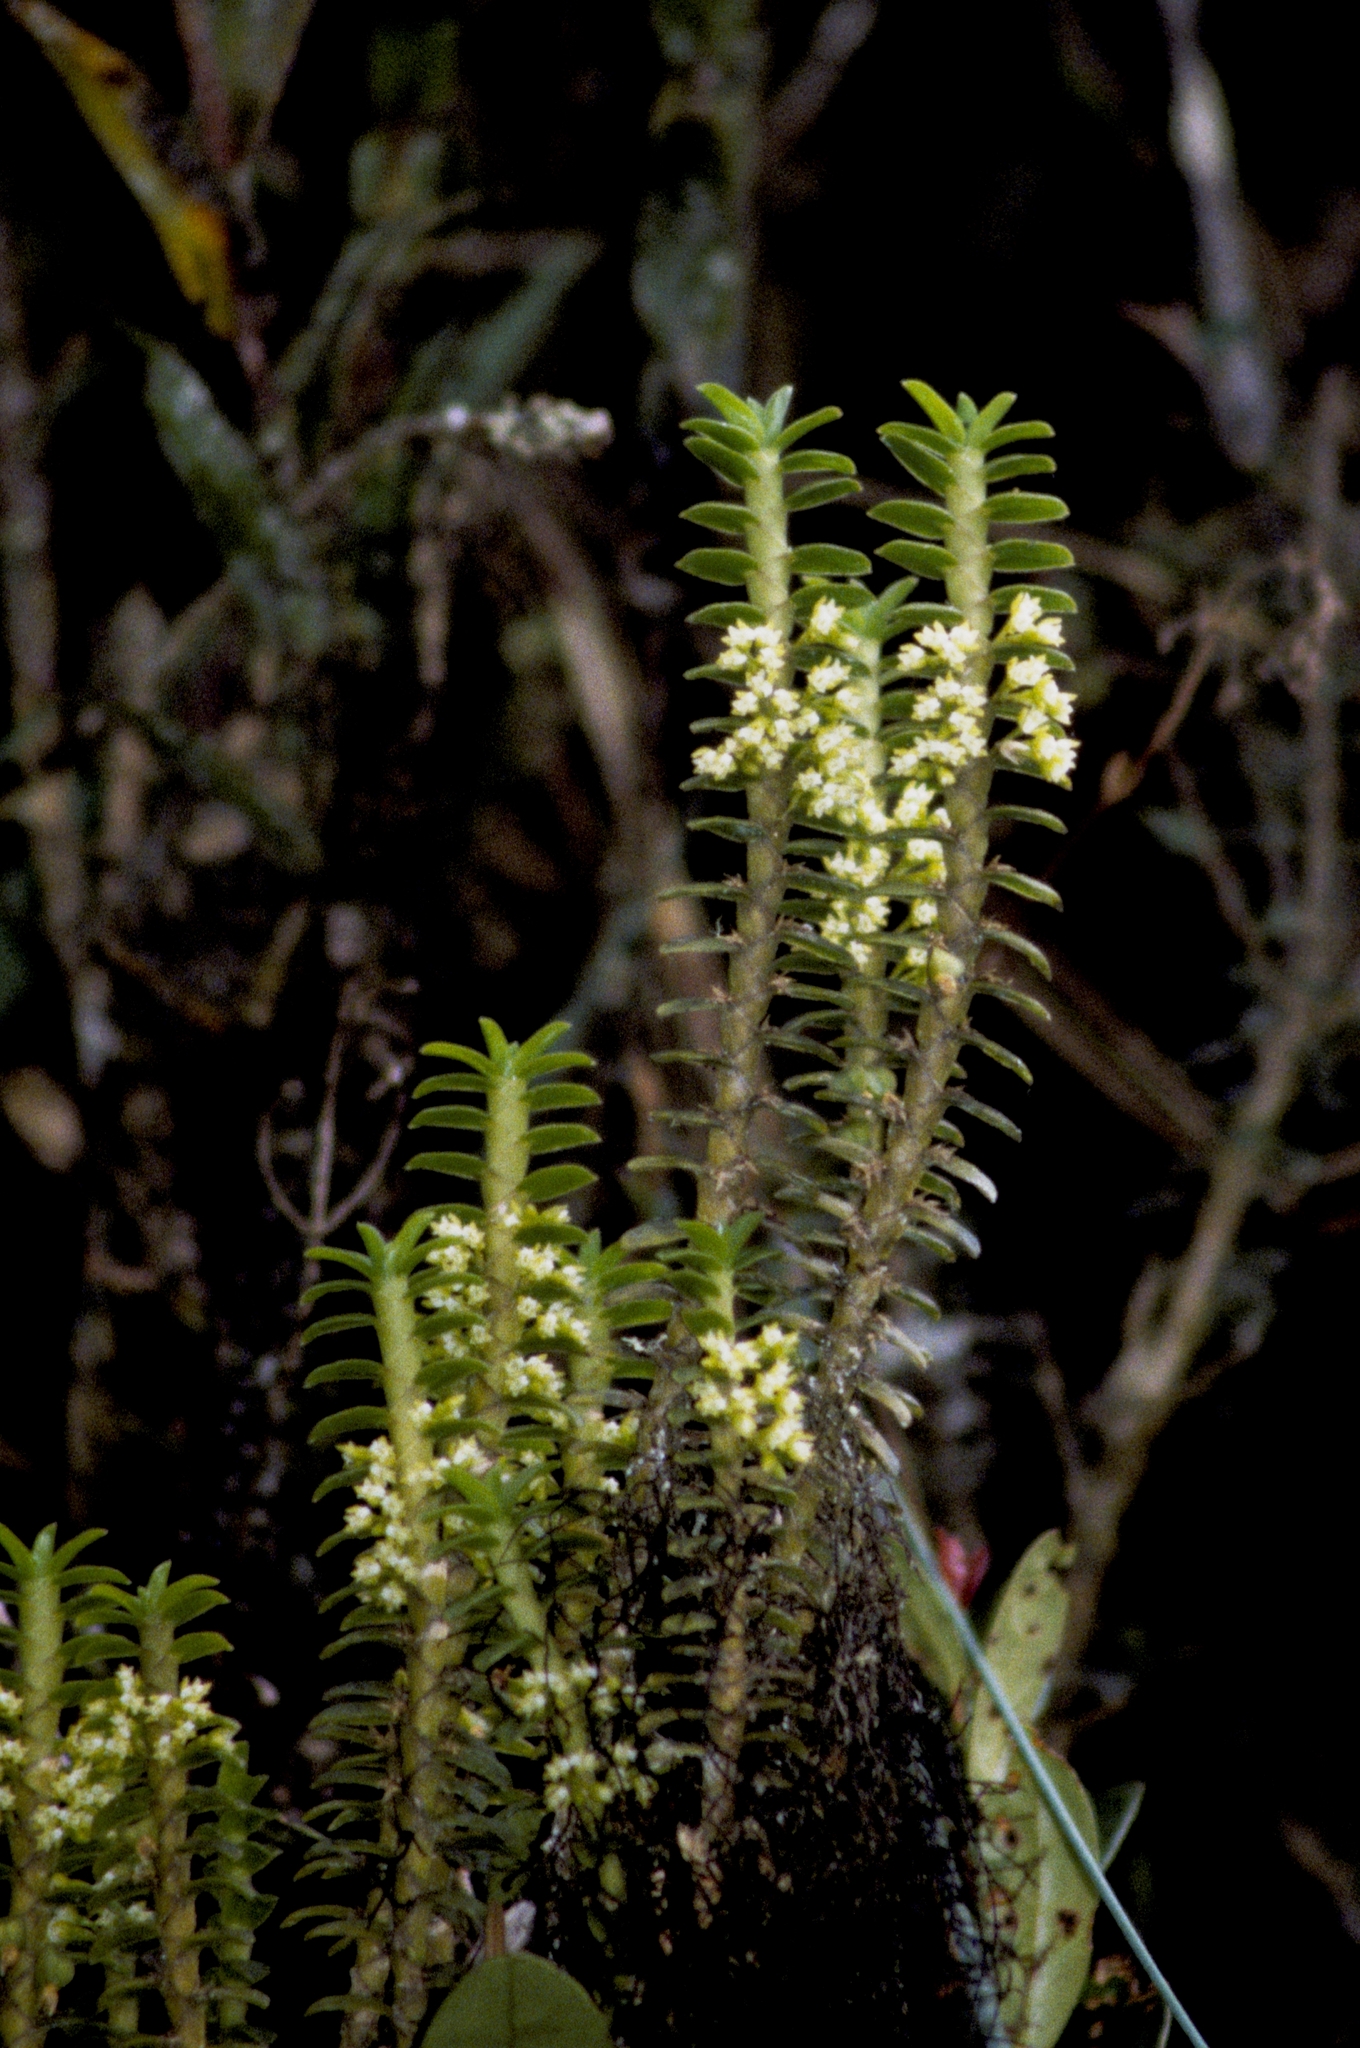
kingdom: Plantae
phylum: Tracheophyta
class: Liliopsida
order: Asparagales
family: Orchidaceae
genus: Fernandezia
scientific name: Fernandezia crystallina
